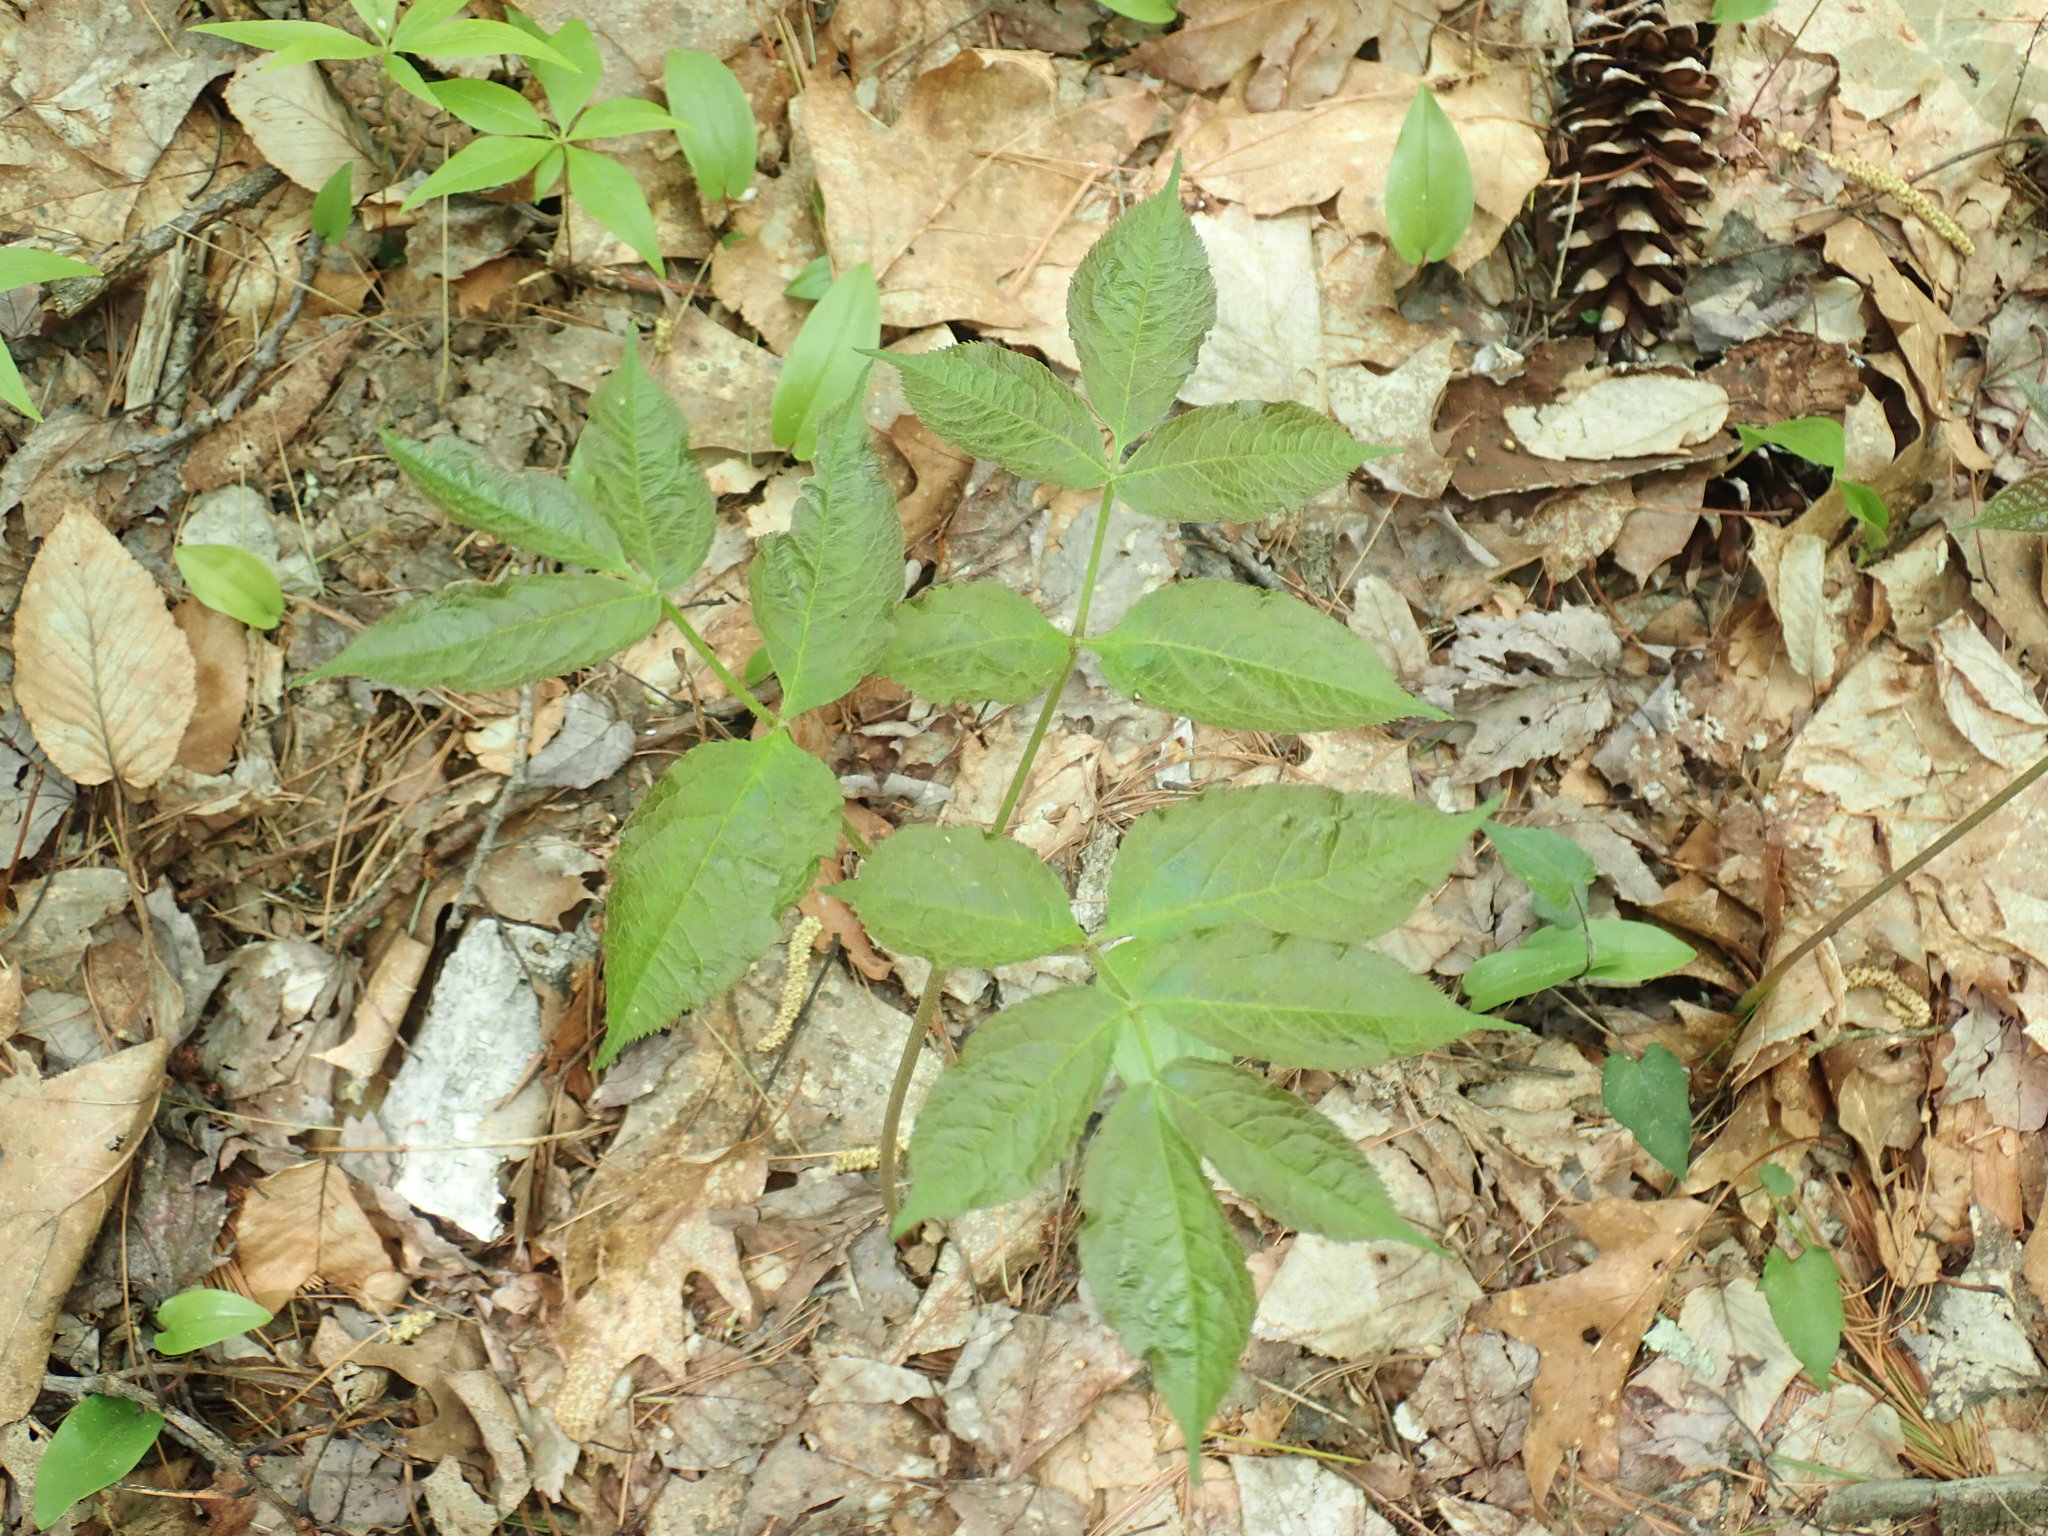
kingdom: Plantae
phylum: Tracheophyta
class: Magnoliopsida
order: Apiales
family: Araliaceae
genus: Aralia
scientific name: Aralia nudicaulis
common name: Wild sarsaparilla
